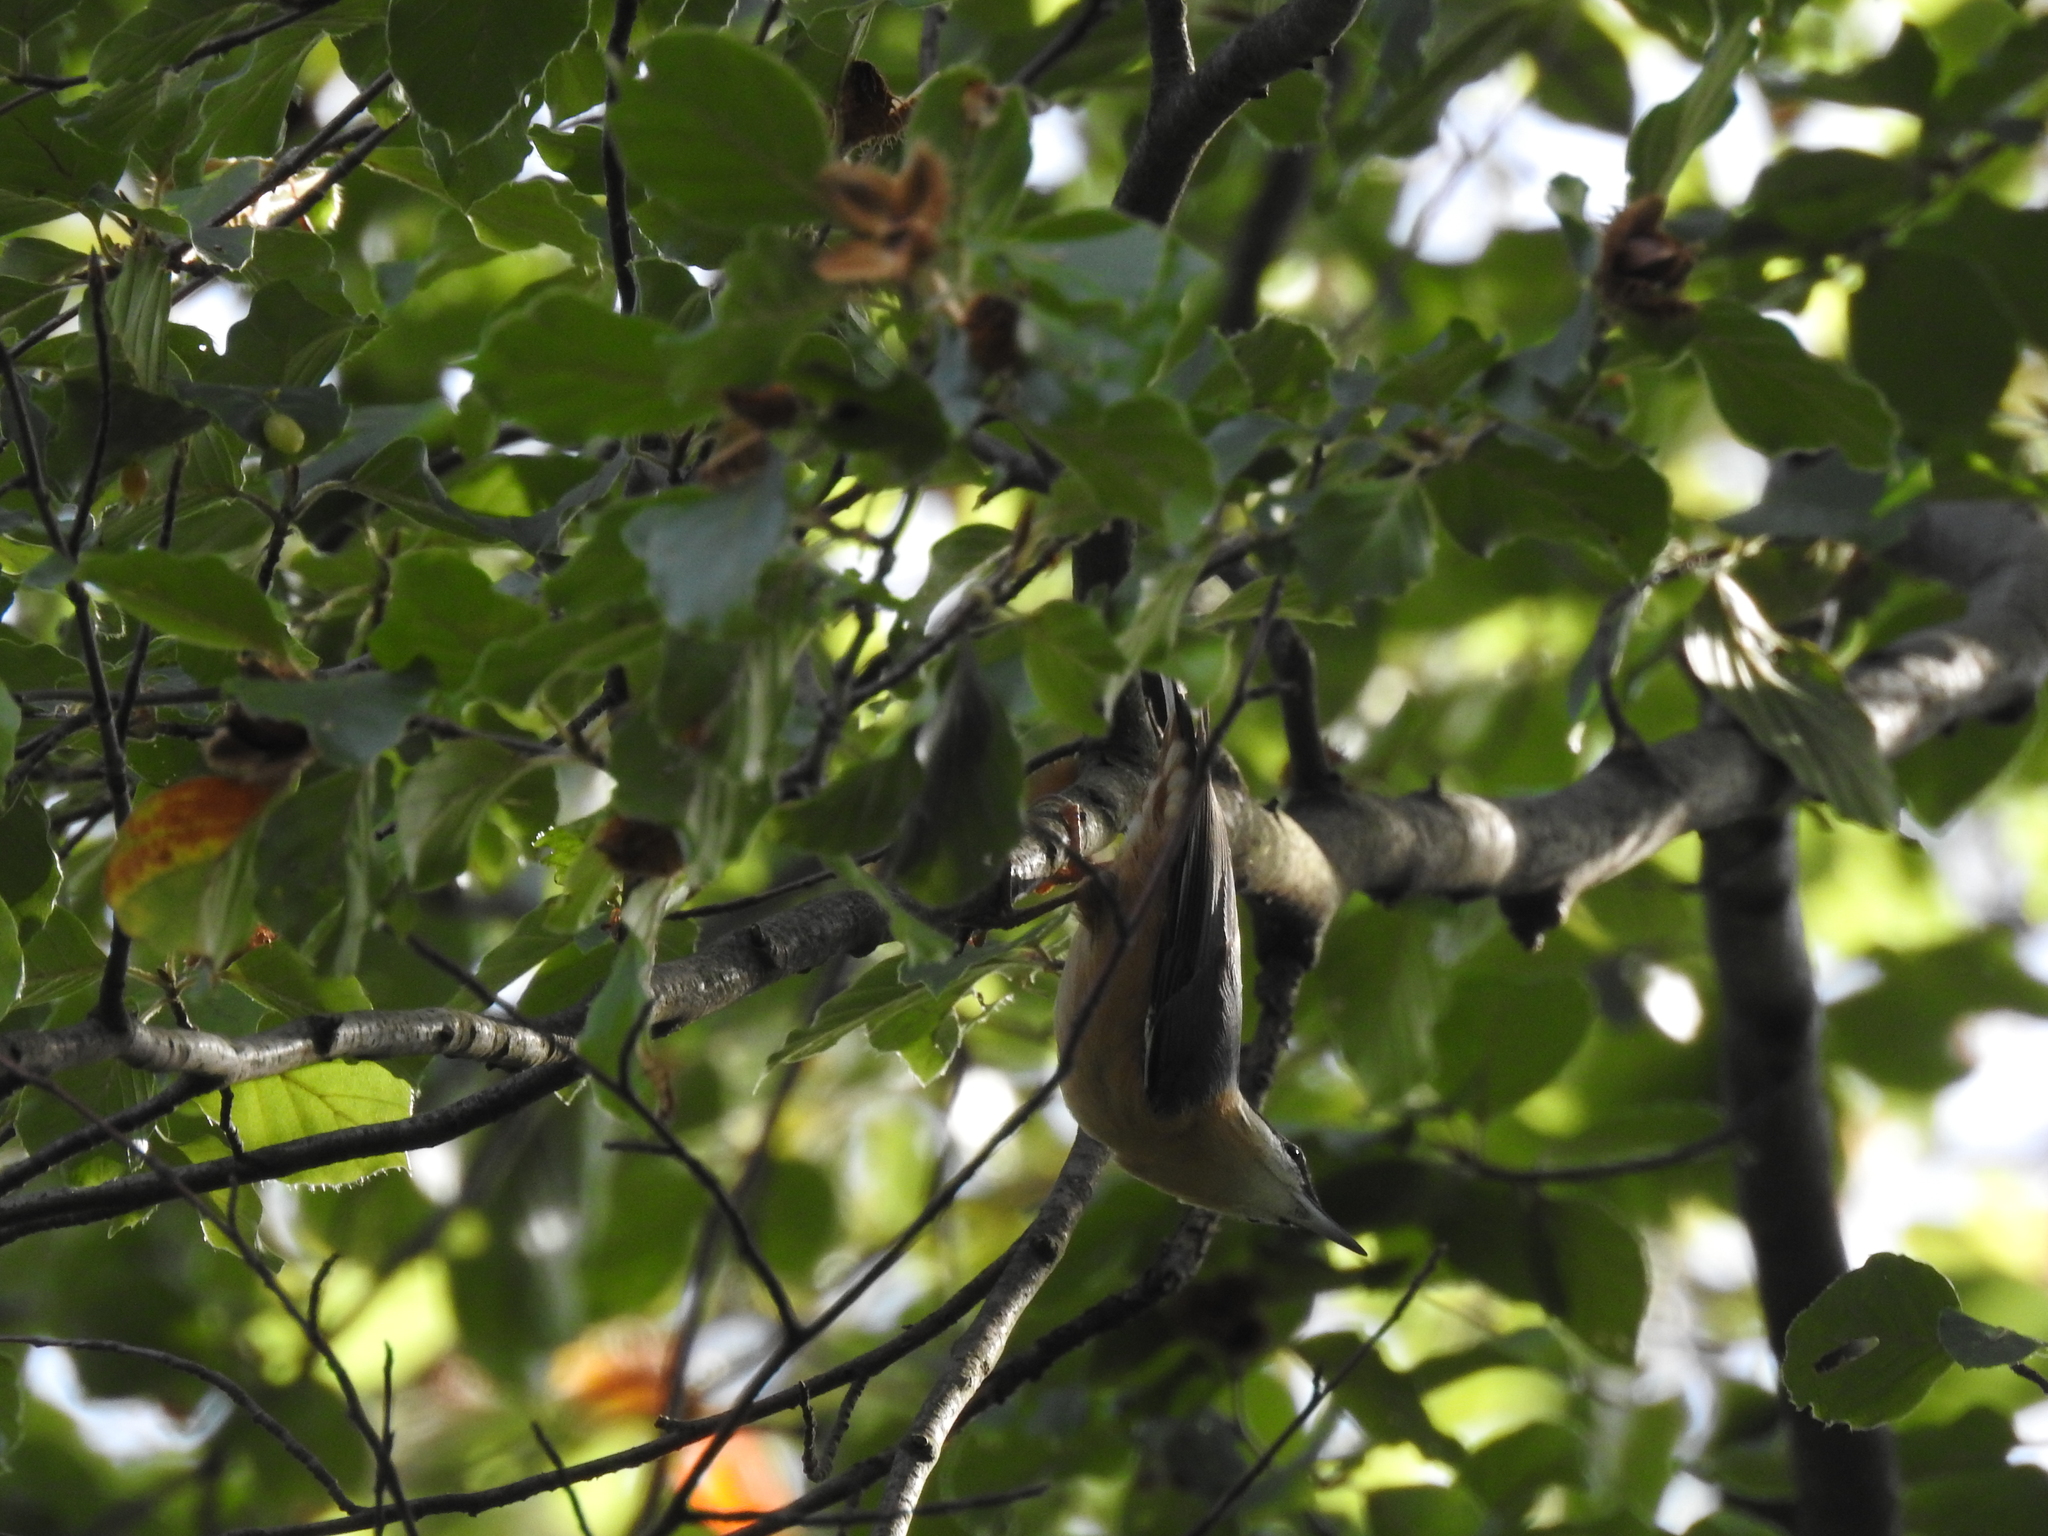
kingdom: Animalia
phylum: Chordata
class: Aves
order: Passeriformes
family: Sittidae
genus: Sitta
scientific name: Sitta europaea
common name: Eurasian nuthatch
